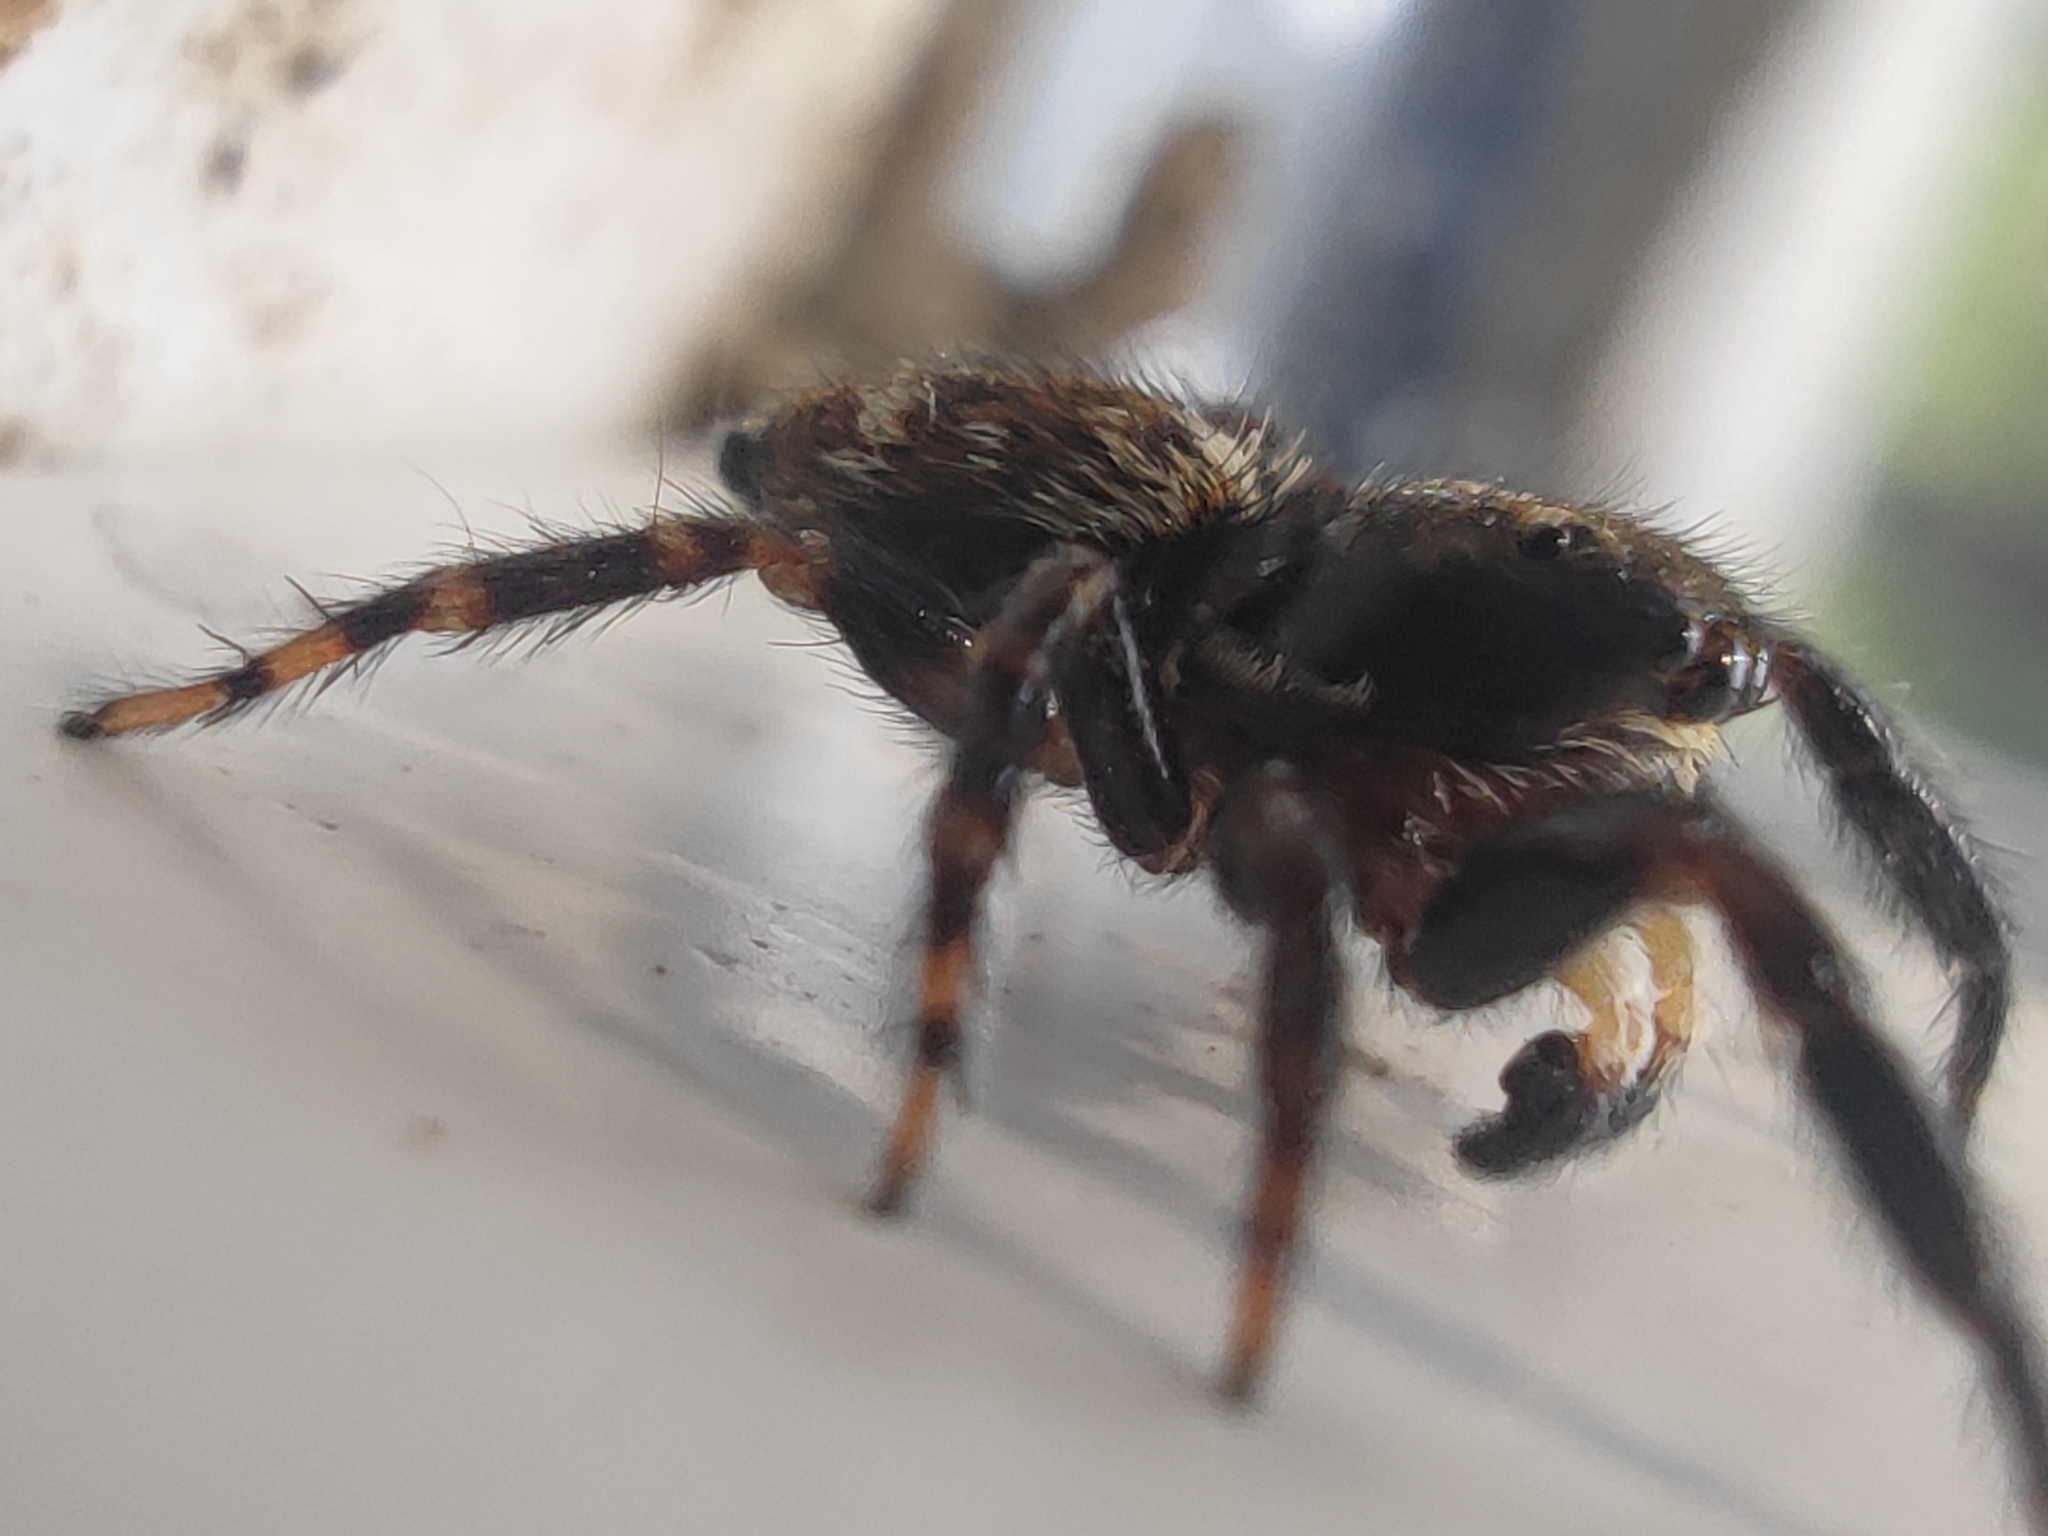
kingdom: Animalia
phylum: Arthropoda
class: Arachnida
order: Araneae
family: Salticidae
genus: Pseudeuophrys
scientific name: Pseudeuophrys erratica
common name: Jumping spider
